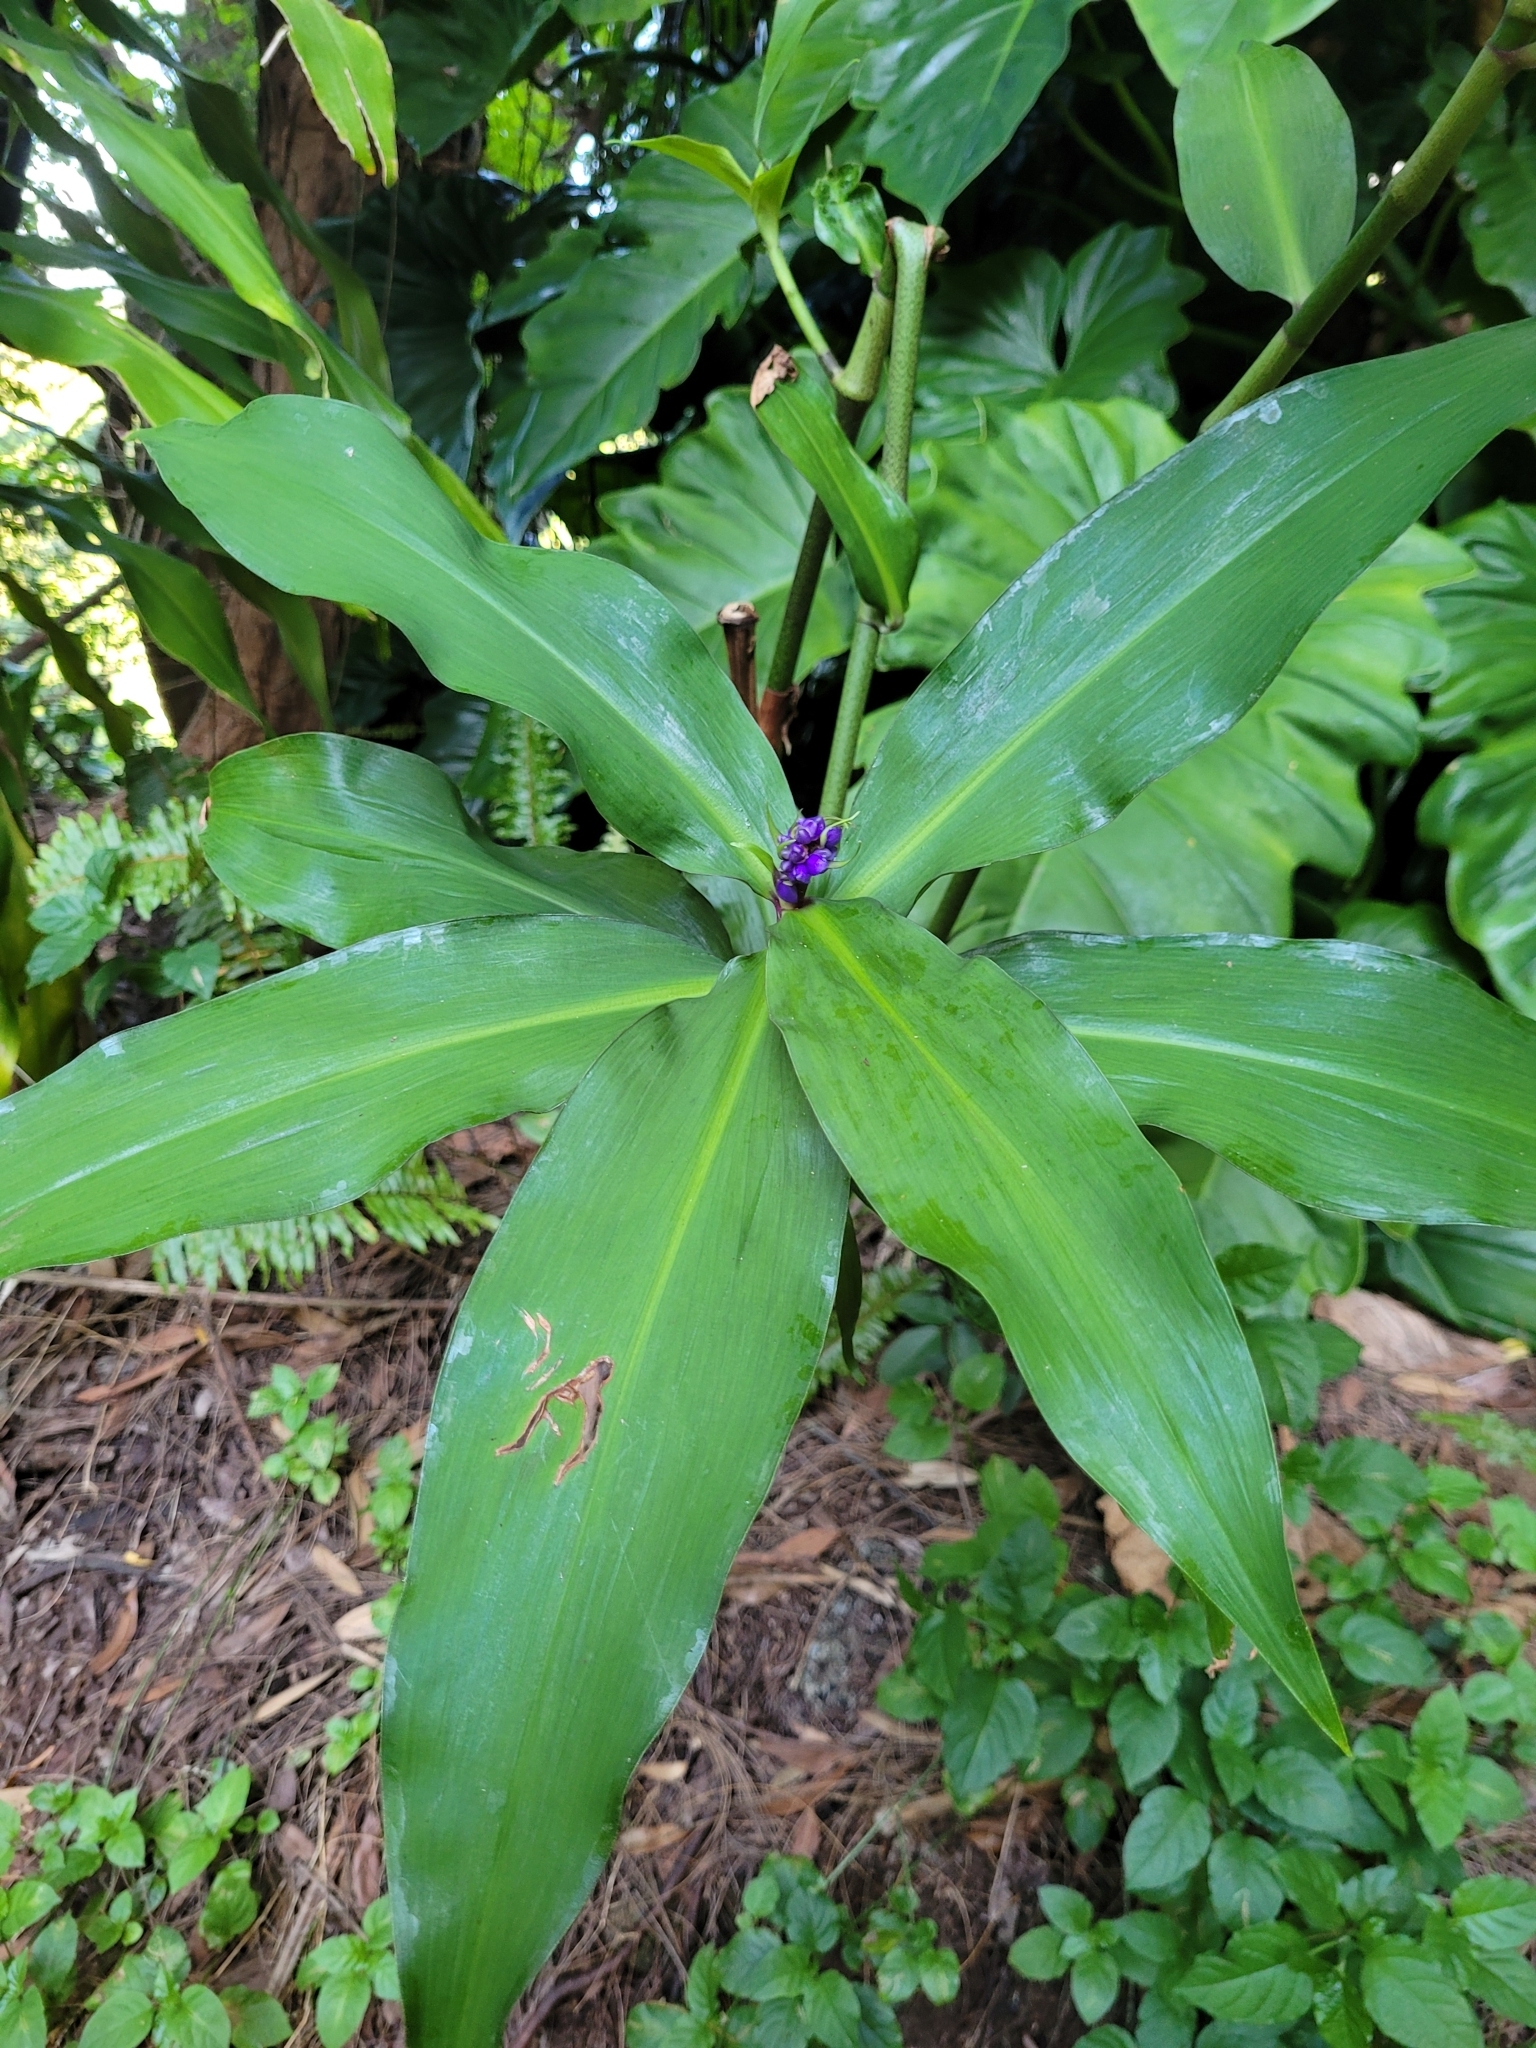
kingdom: Plantae
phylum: Tracheophyta
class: Liliopsida
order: Commelinales
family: Commelinaceae
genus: Dichorisandra
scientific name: Dichorisandra thyrsiflora
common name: Blue-ginger
